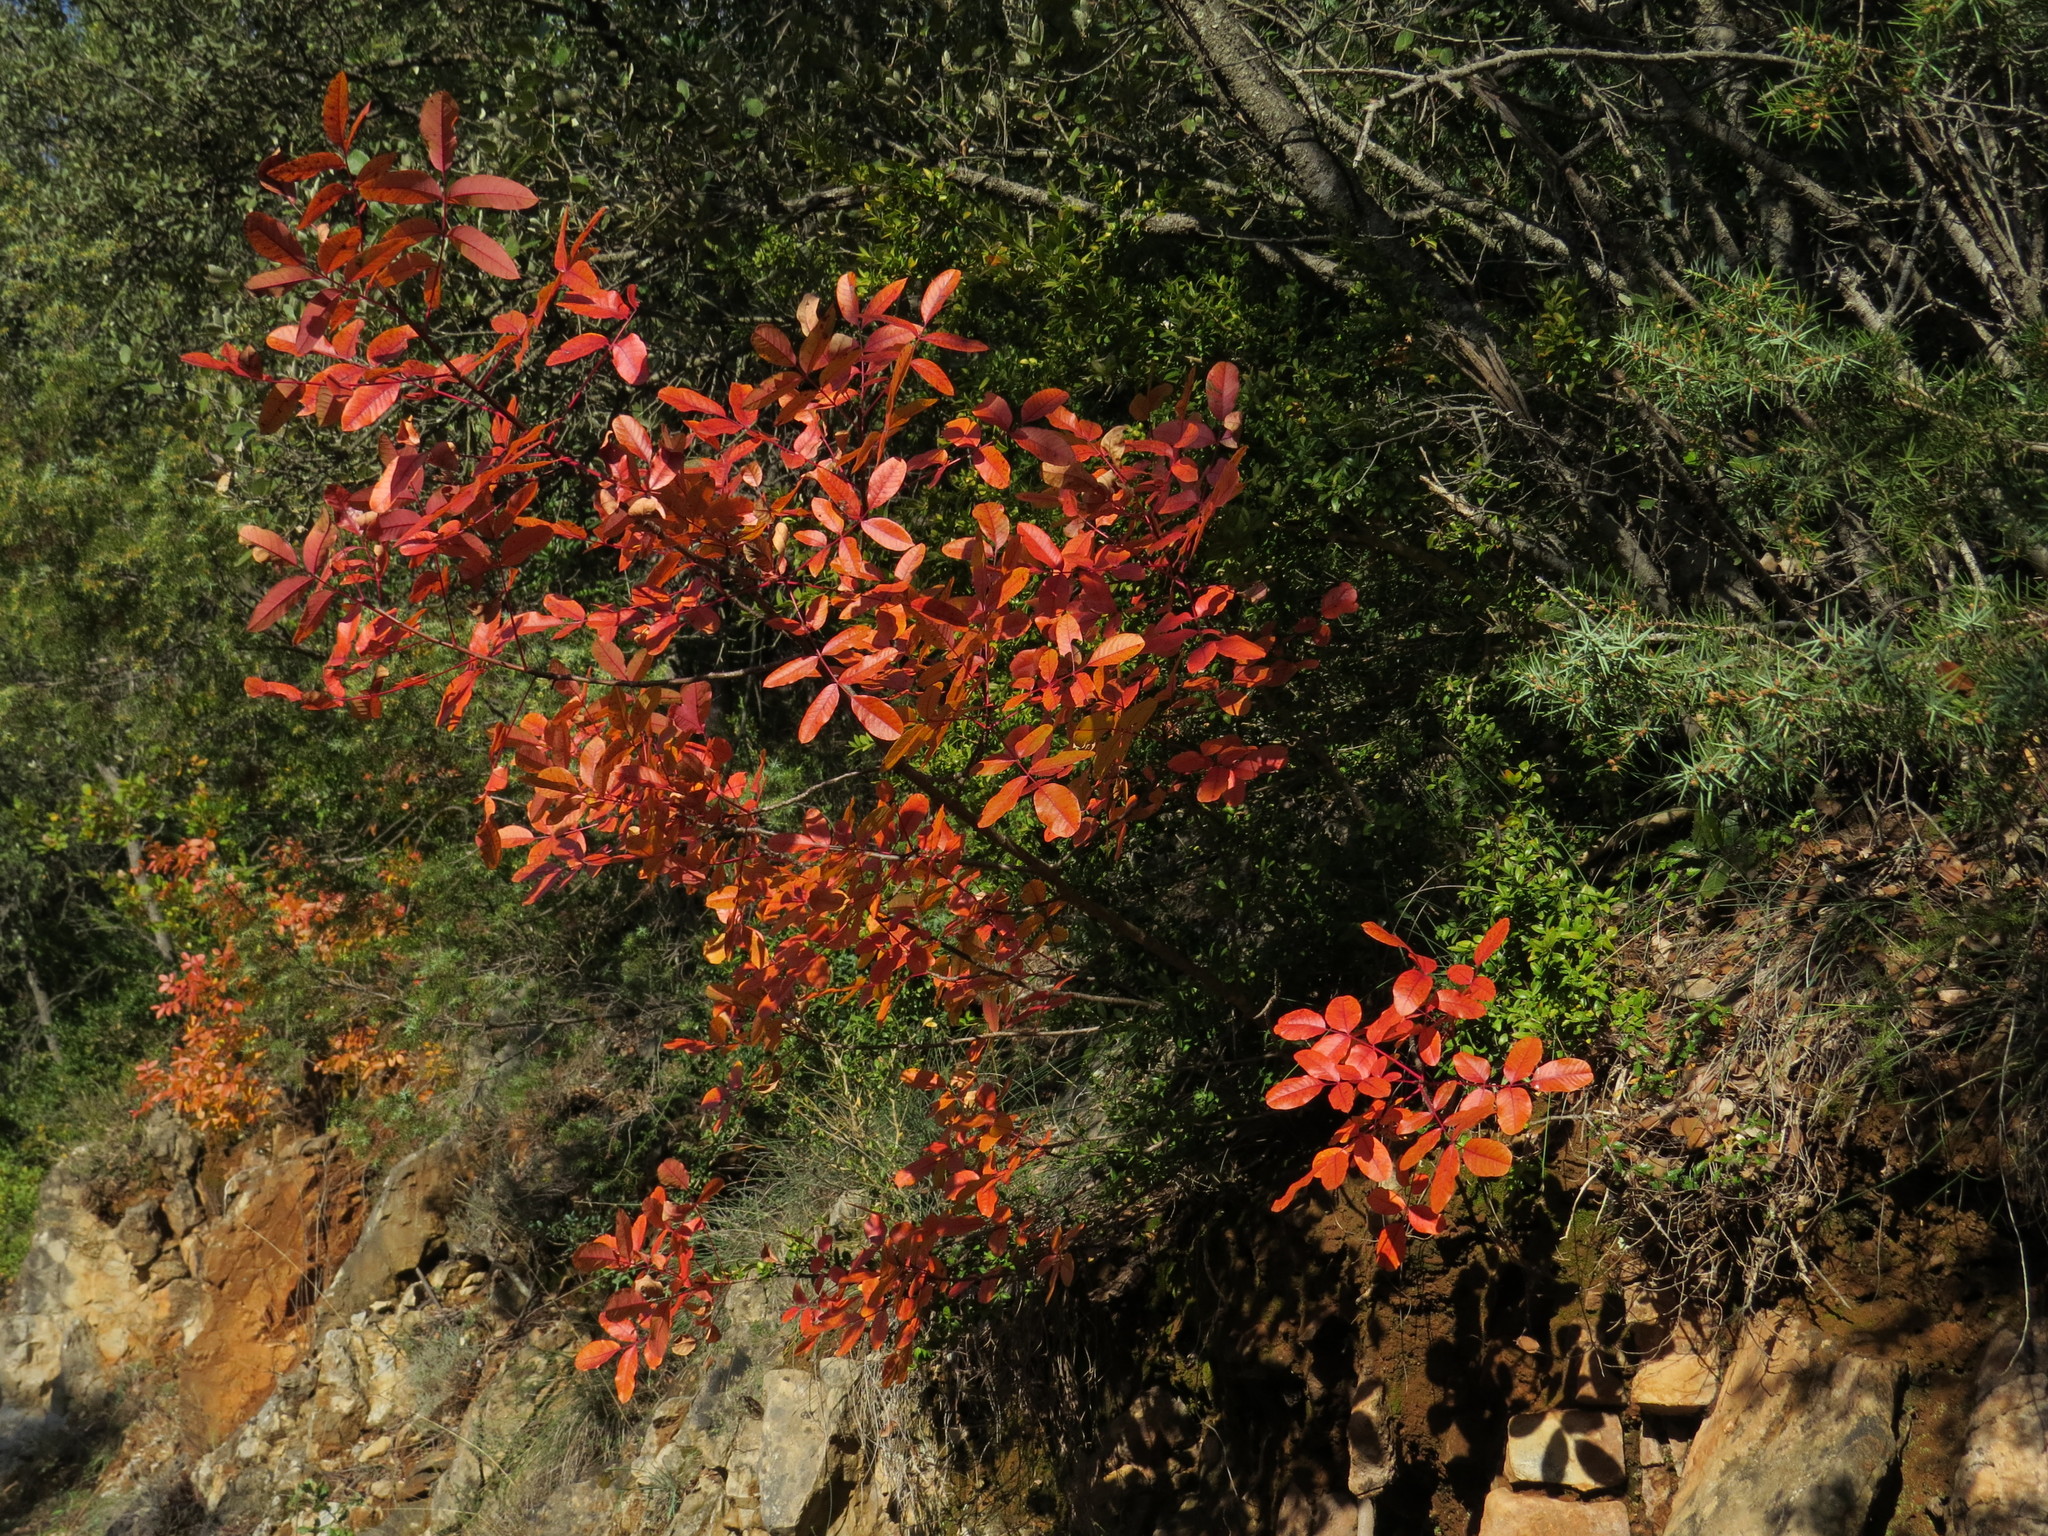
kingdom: Plantae
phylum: Tracheophyta
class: Magnoliopsida
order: Sapindales
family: Anacardiaceae
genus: Pistacia
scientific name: Pistacia terebinthus
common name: Terebinth
